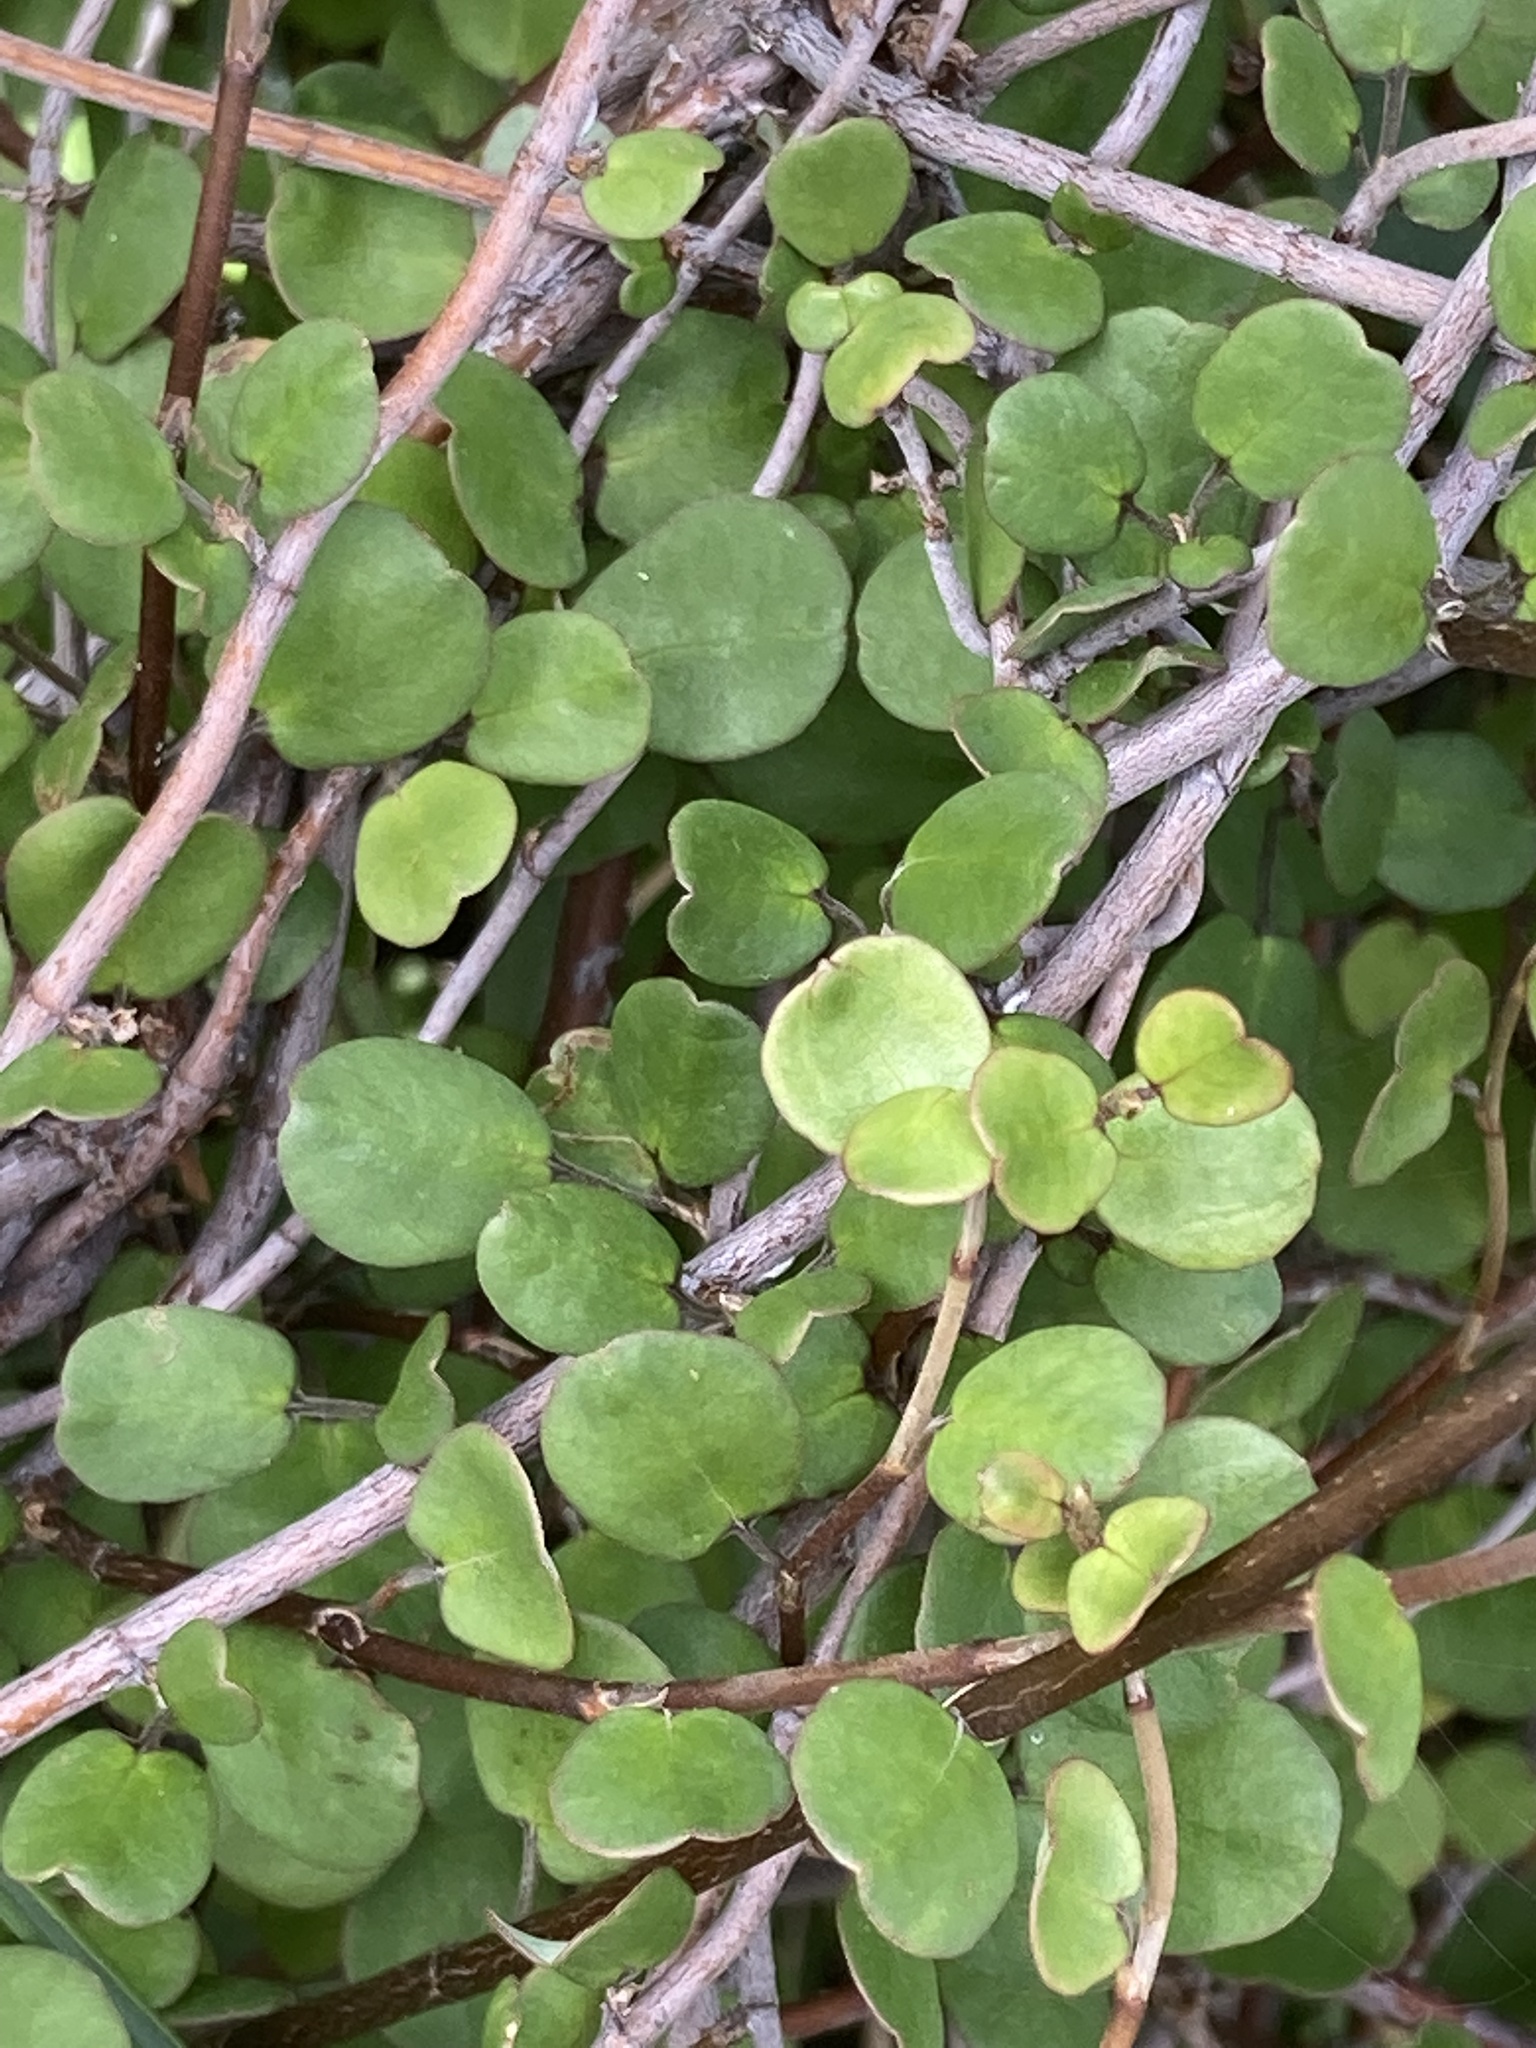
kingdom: Plantae
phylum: Tracheophyta
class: Magnoliopsida
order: Caryophyllales
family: Polygonaceae
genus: Muehlenbeckia
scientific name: Muehlenbeckia complexa
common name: Wireplant
